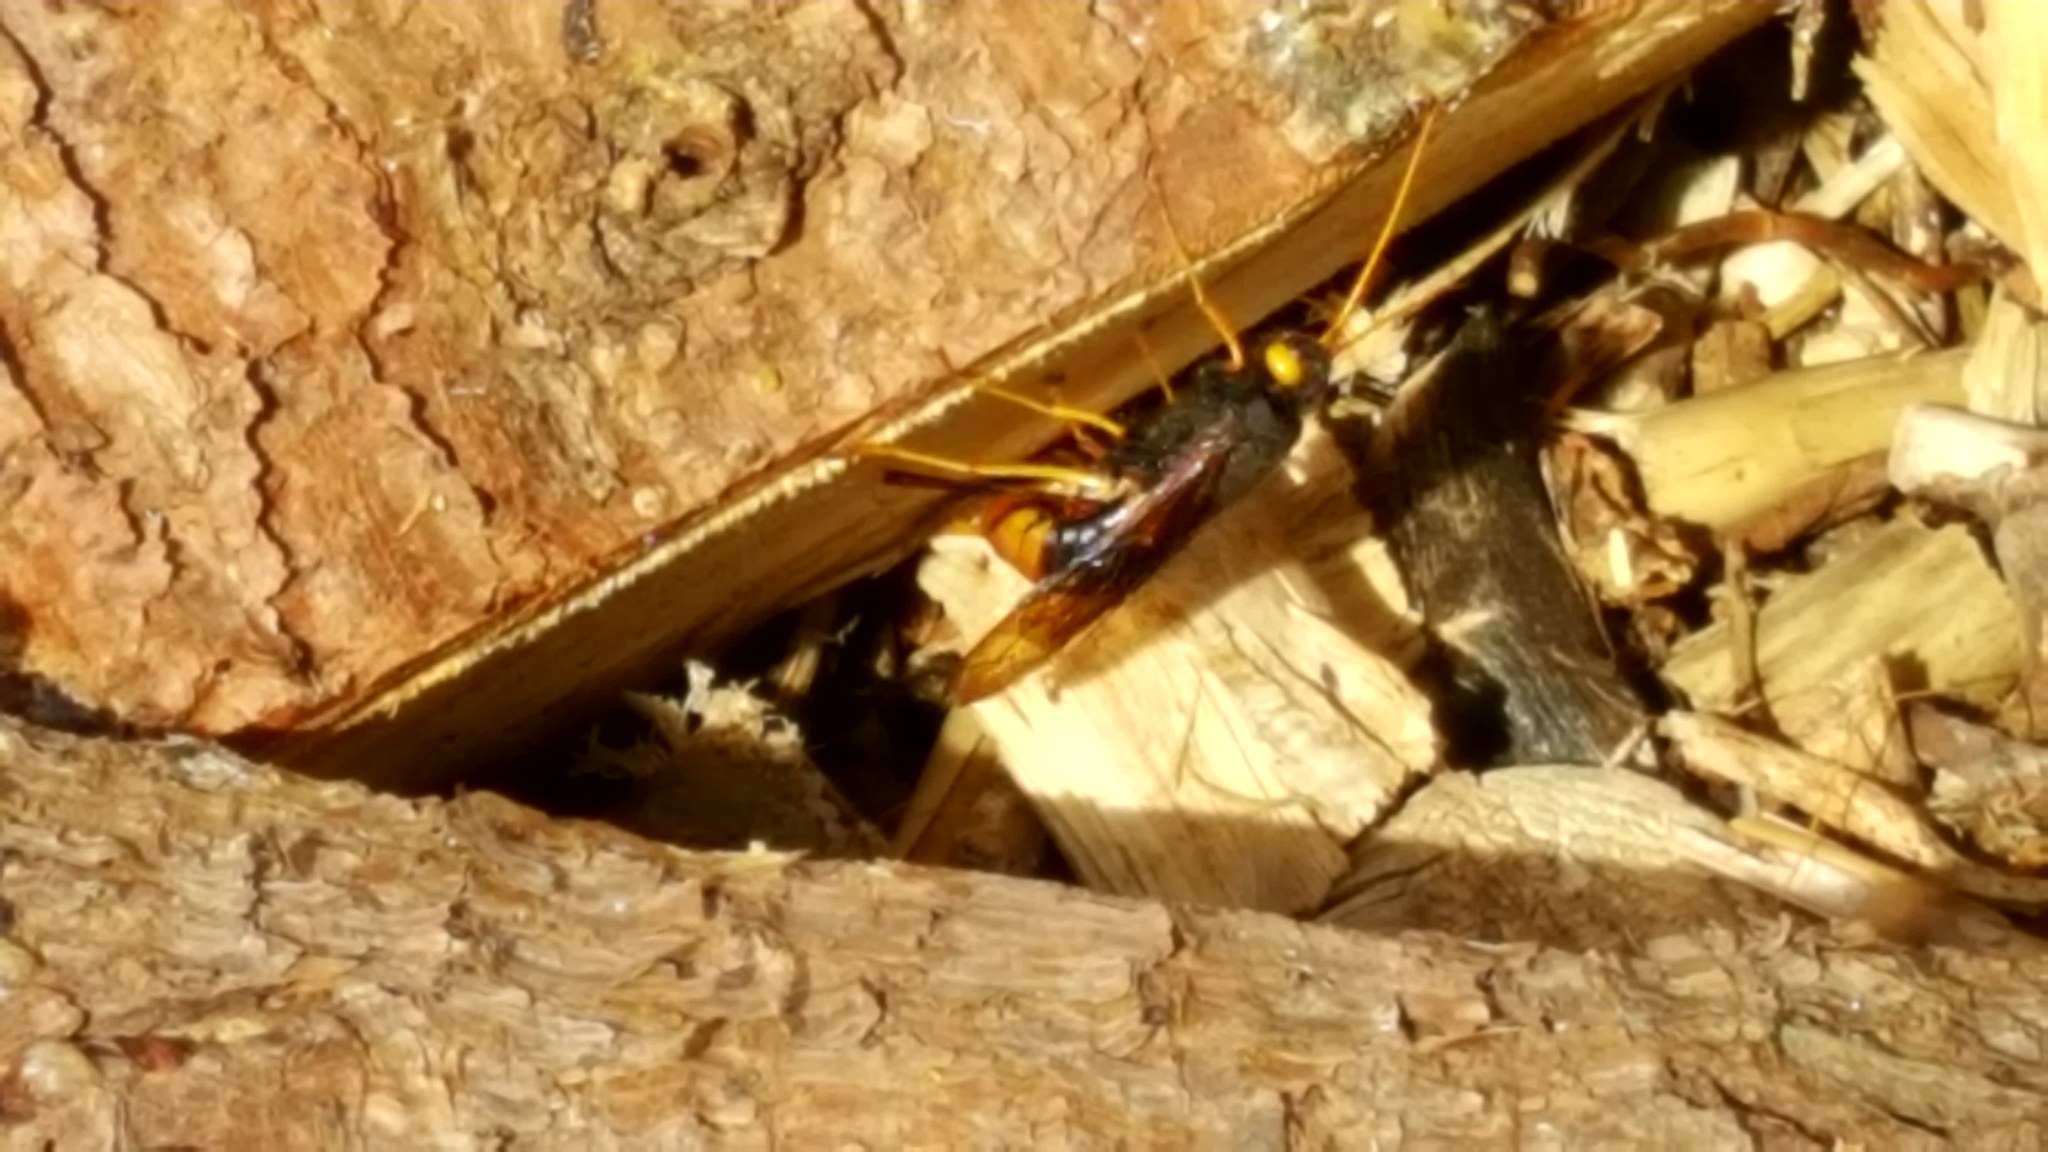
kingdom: Animalia
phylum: Arthropoda
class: Insecta
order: Hymenoptera
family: Siricidae
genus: Urocerus
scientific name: Urocerus gigas
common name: Giant woodwasp
